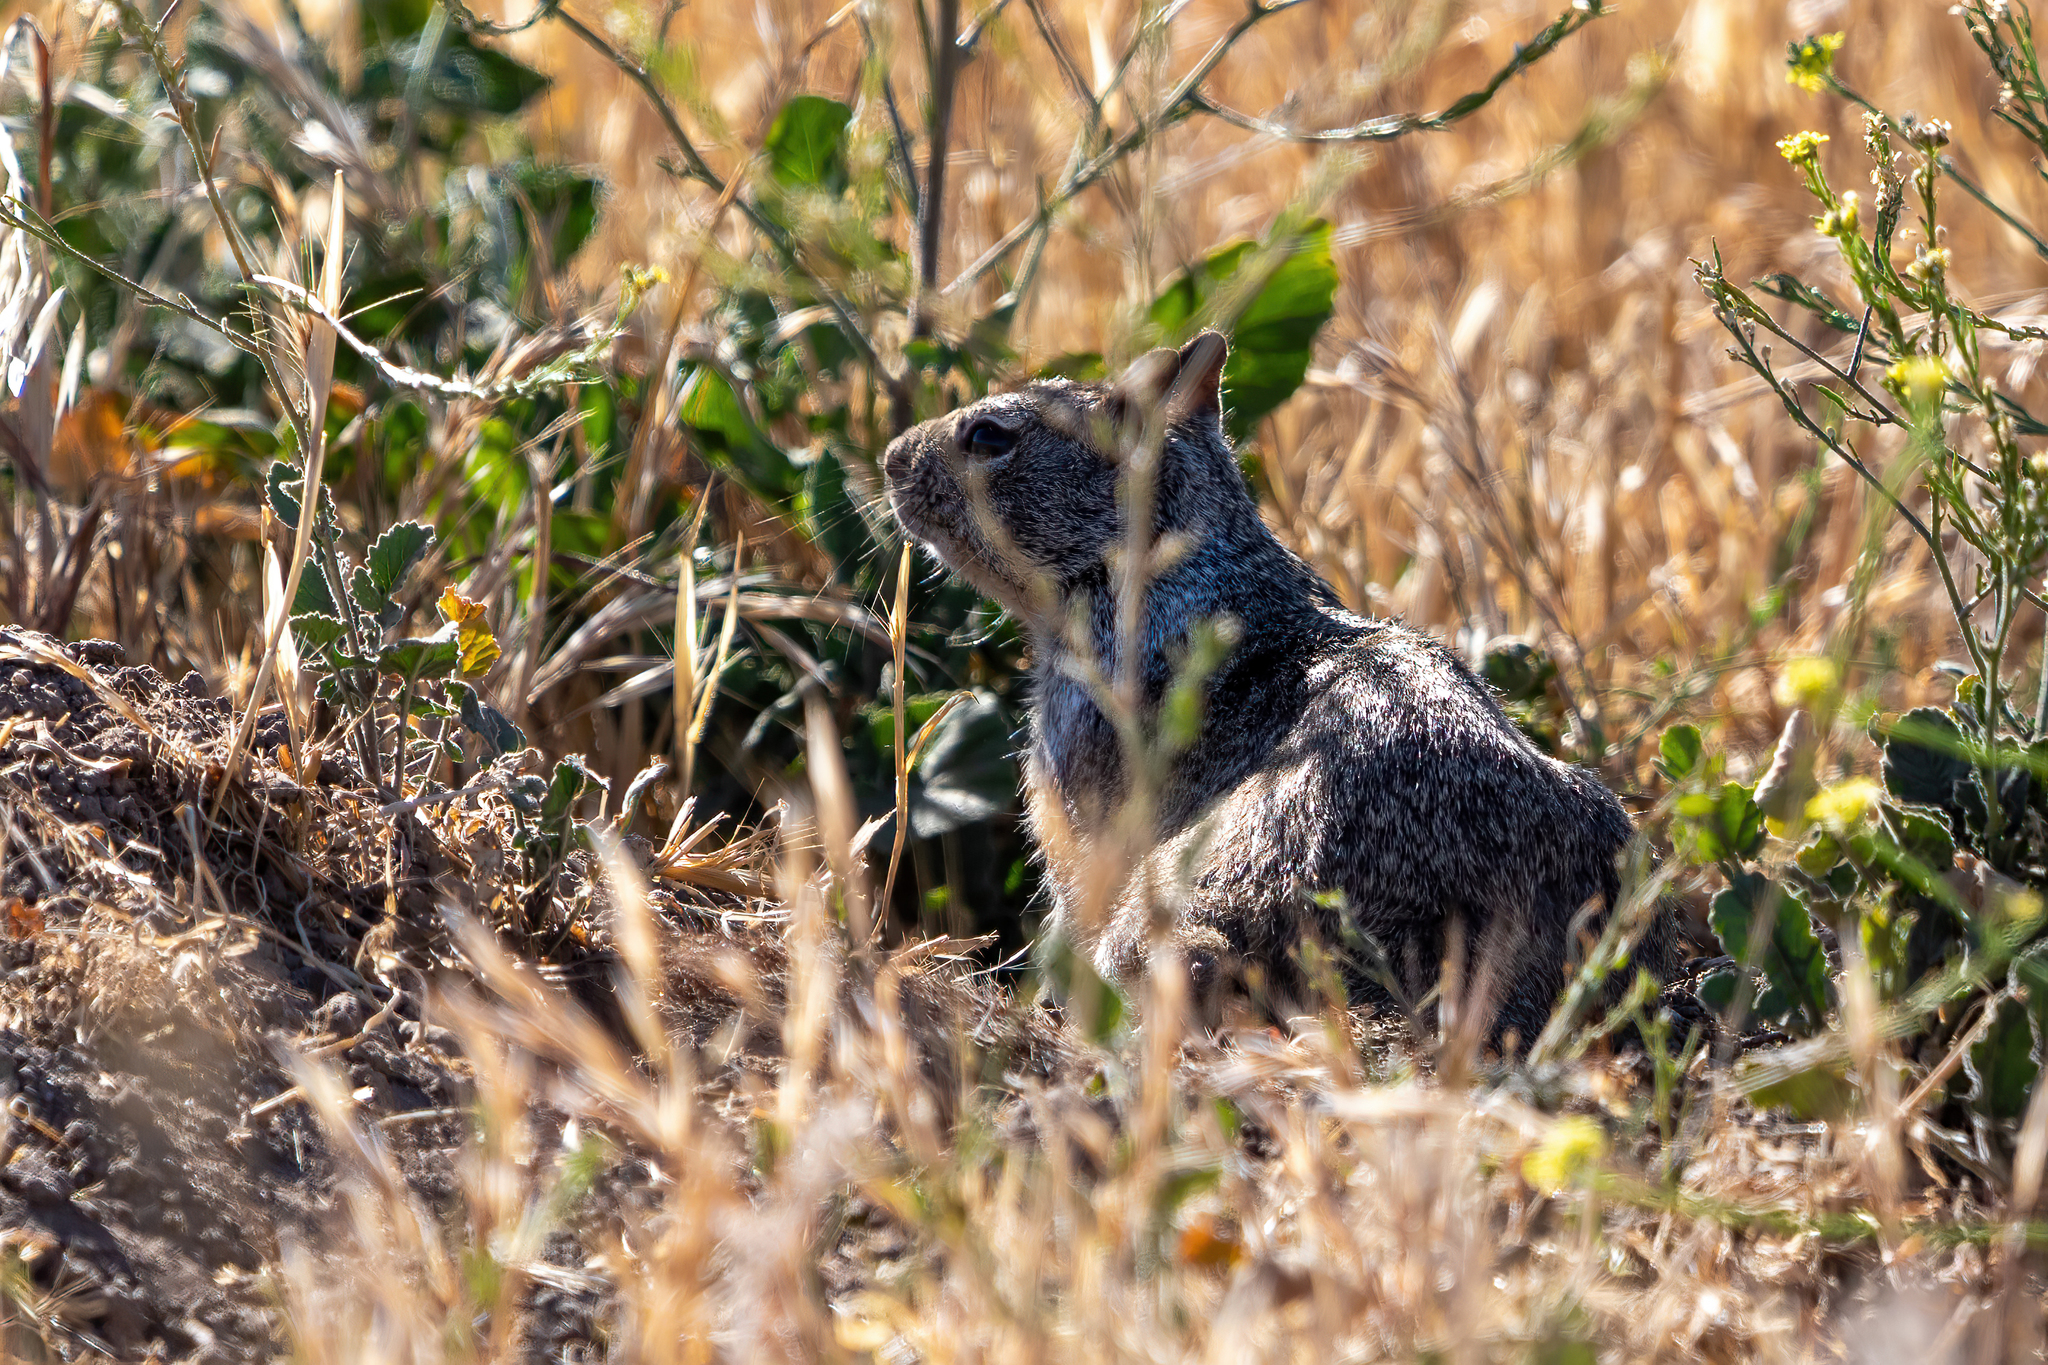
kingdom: Animalia
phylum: Chordata
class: Mammalia
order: Rodentia
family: Sciuridae
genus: Otospermophilus
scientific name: Otospermophilus beecheyi
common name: California ground squirrel
